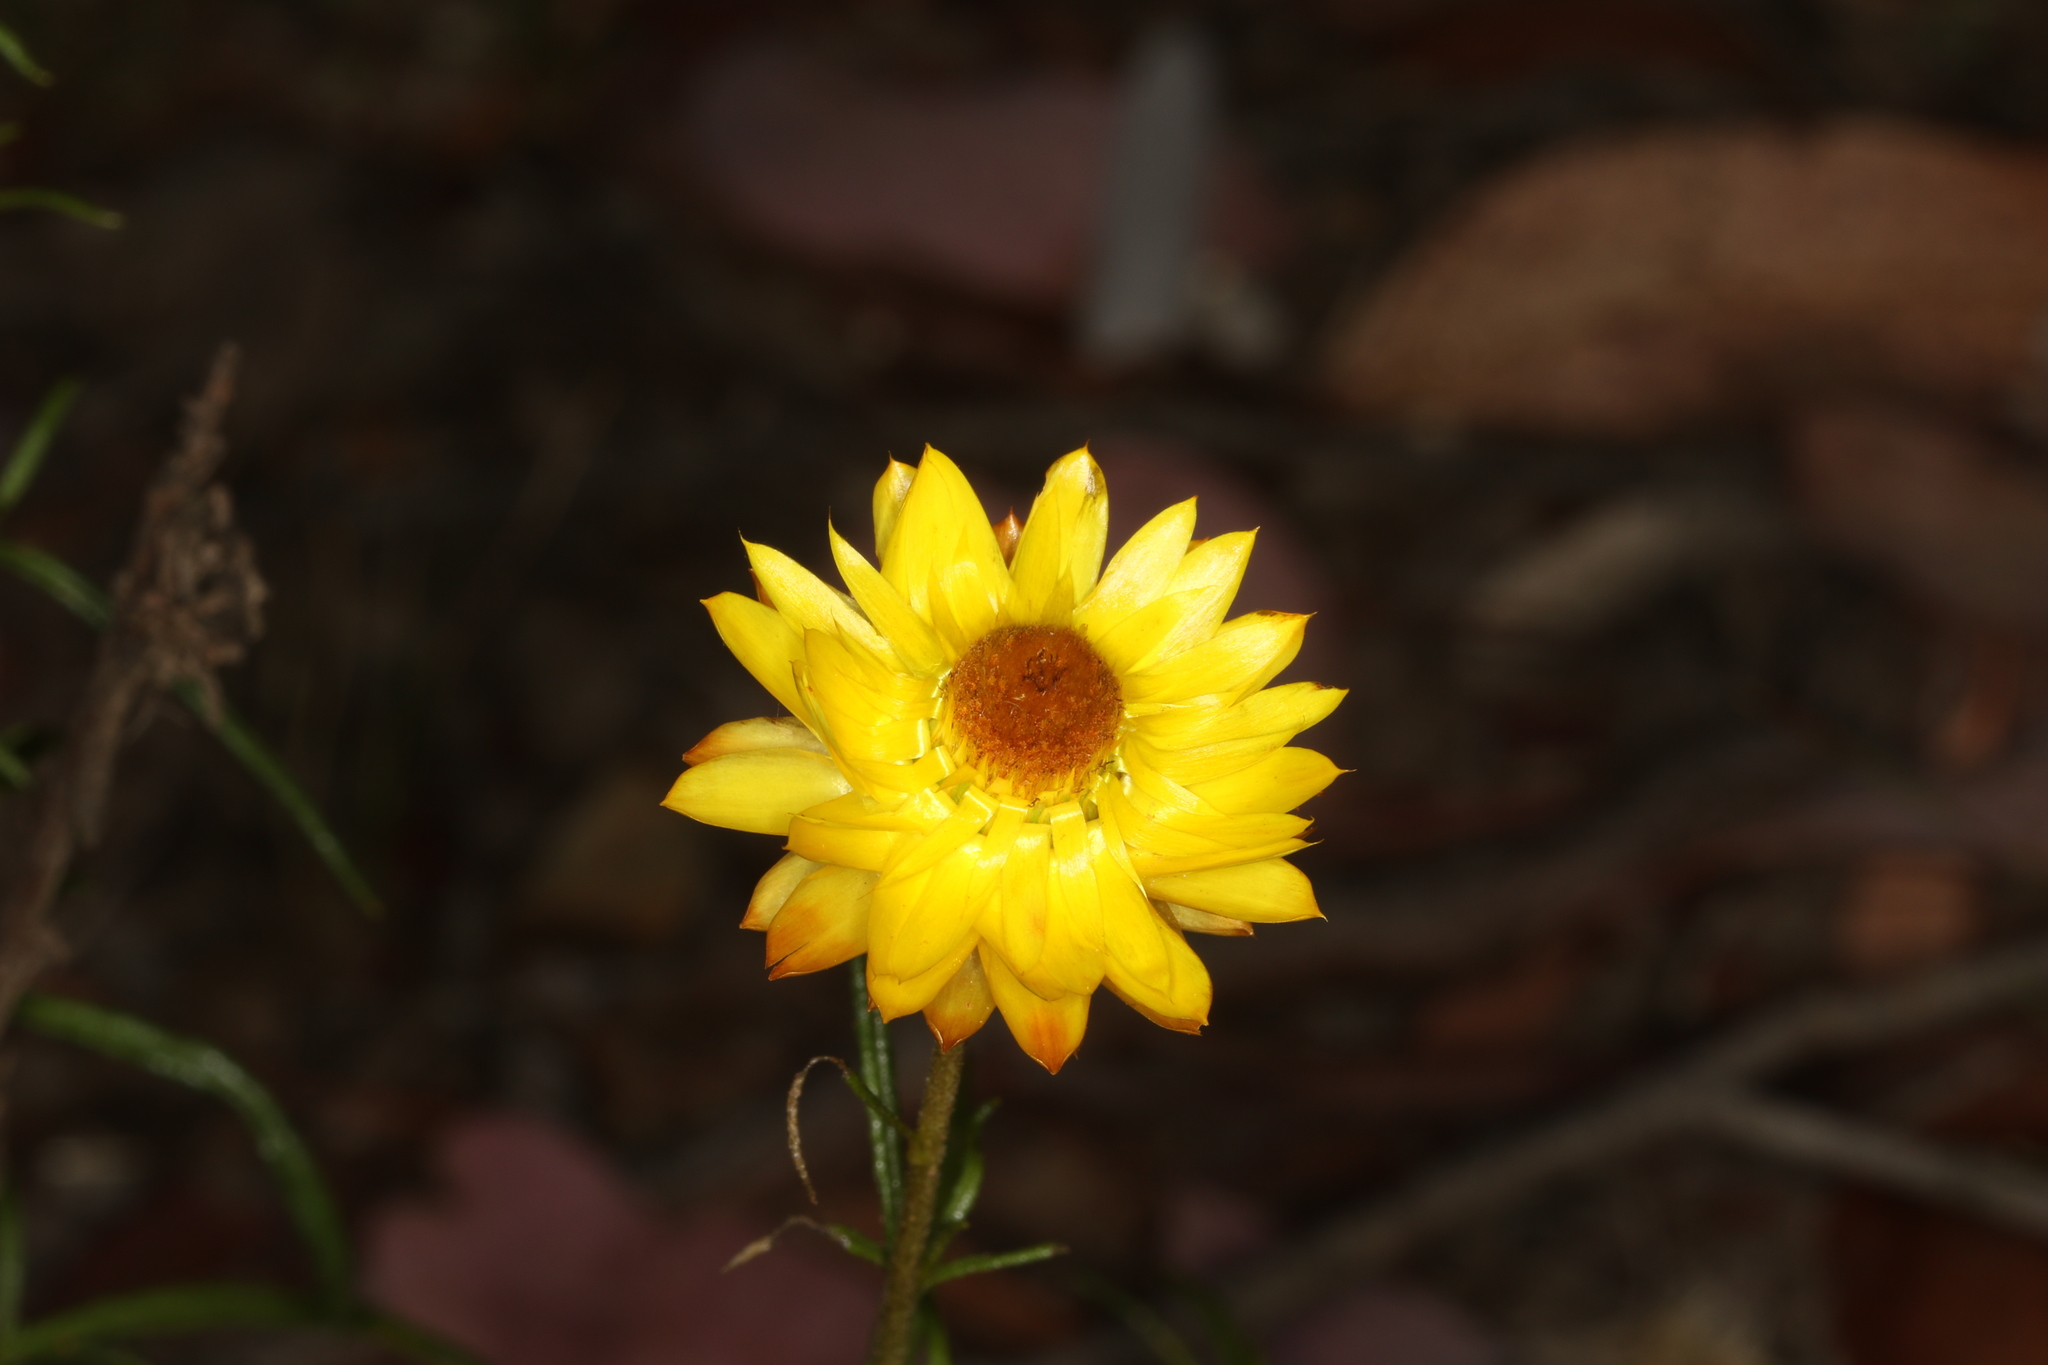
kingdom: Plantae
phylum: Tracheophyta
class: Magnoliopsida
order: Asterales
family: Asteraceae
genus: Xerochrysum
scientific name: Xerochrysum viscosum
